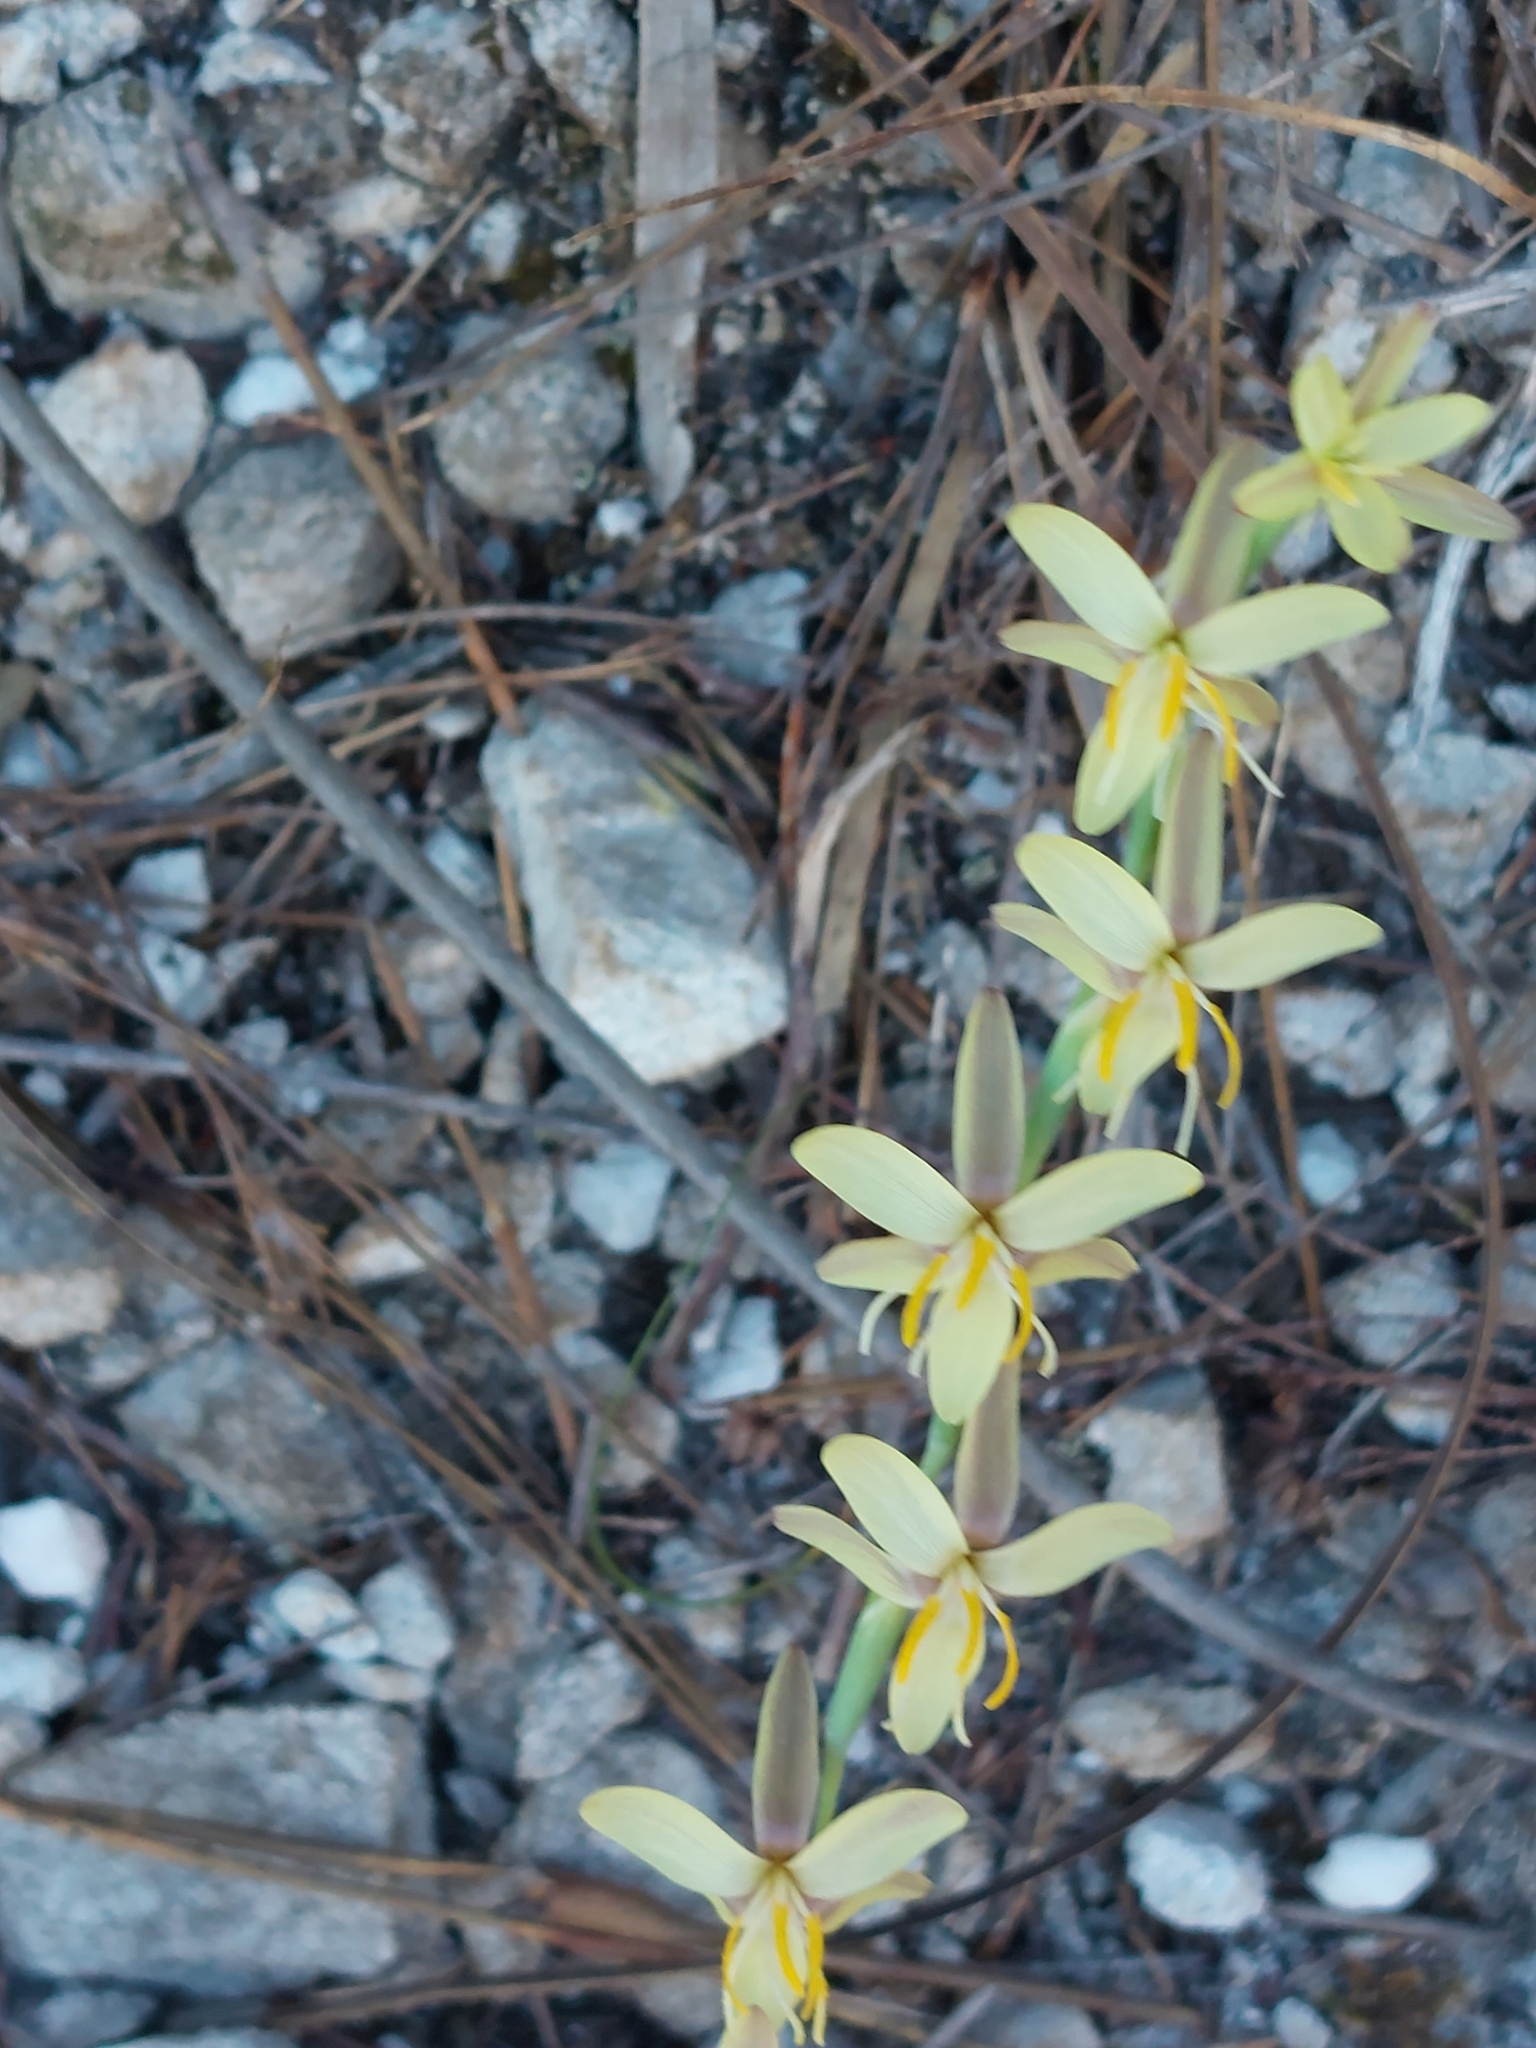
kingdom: Plantae
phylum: Tracheophyta
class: Liliopsida
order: Asparagales
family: Iridaceae
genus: Hesperantha
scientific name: Hesperantha radiata
